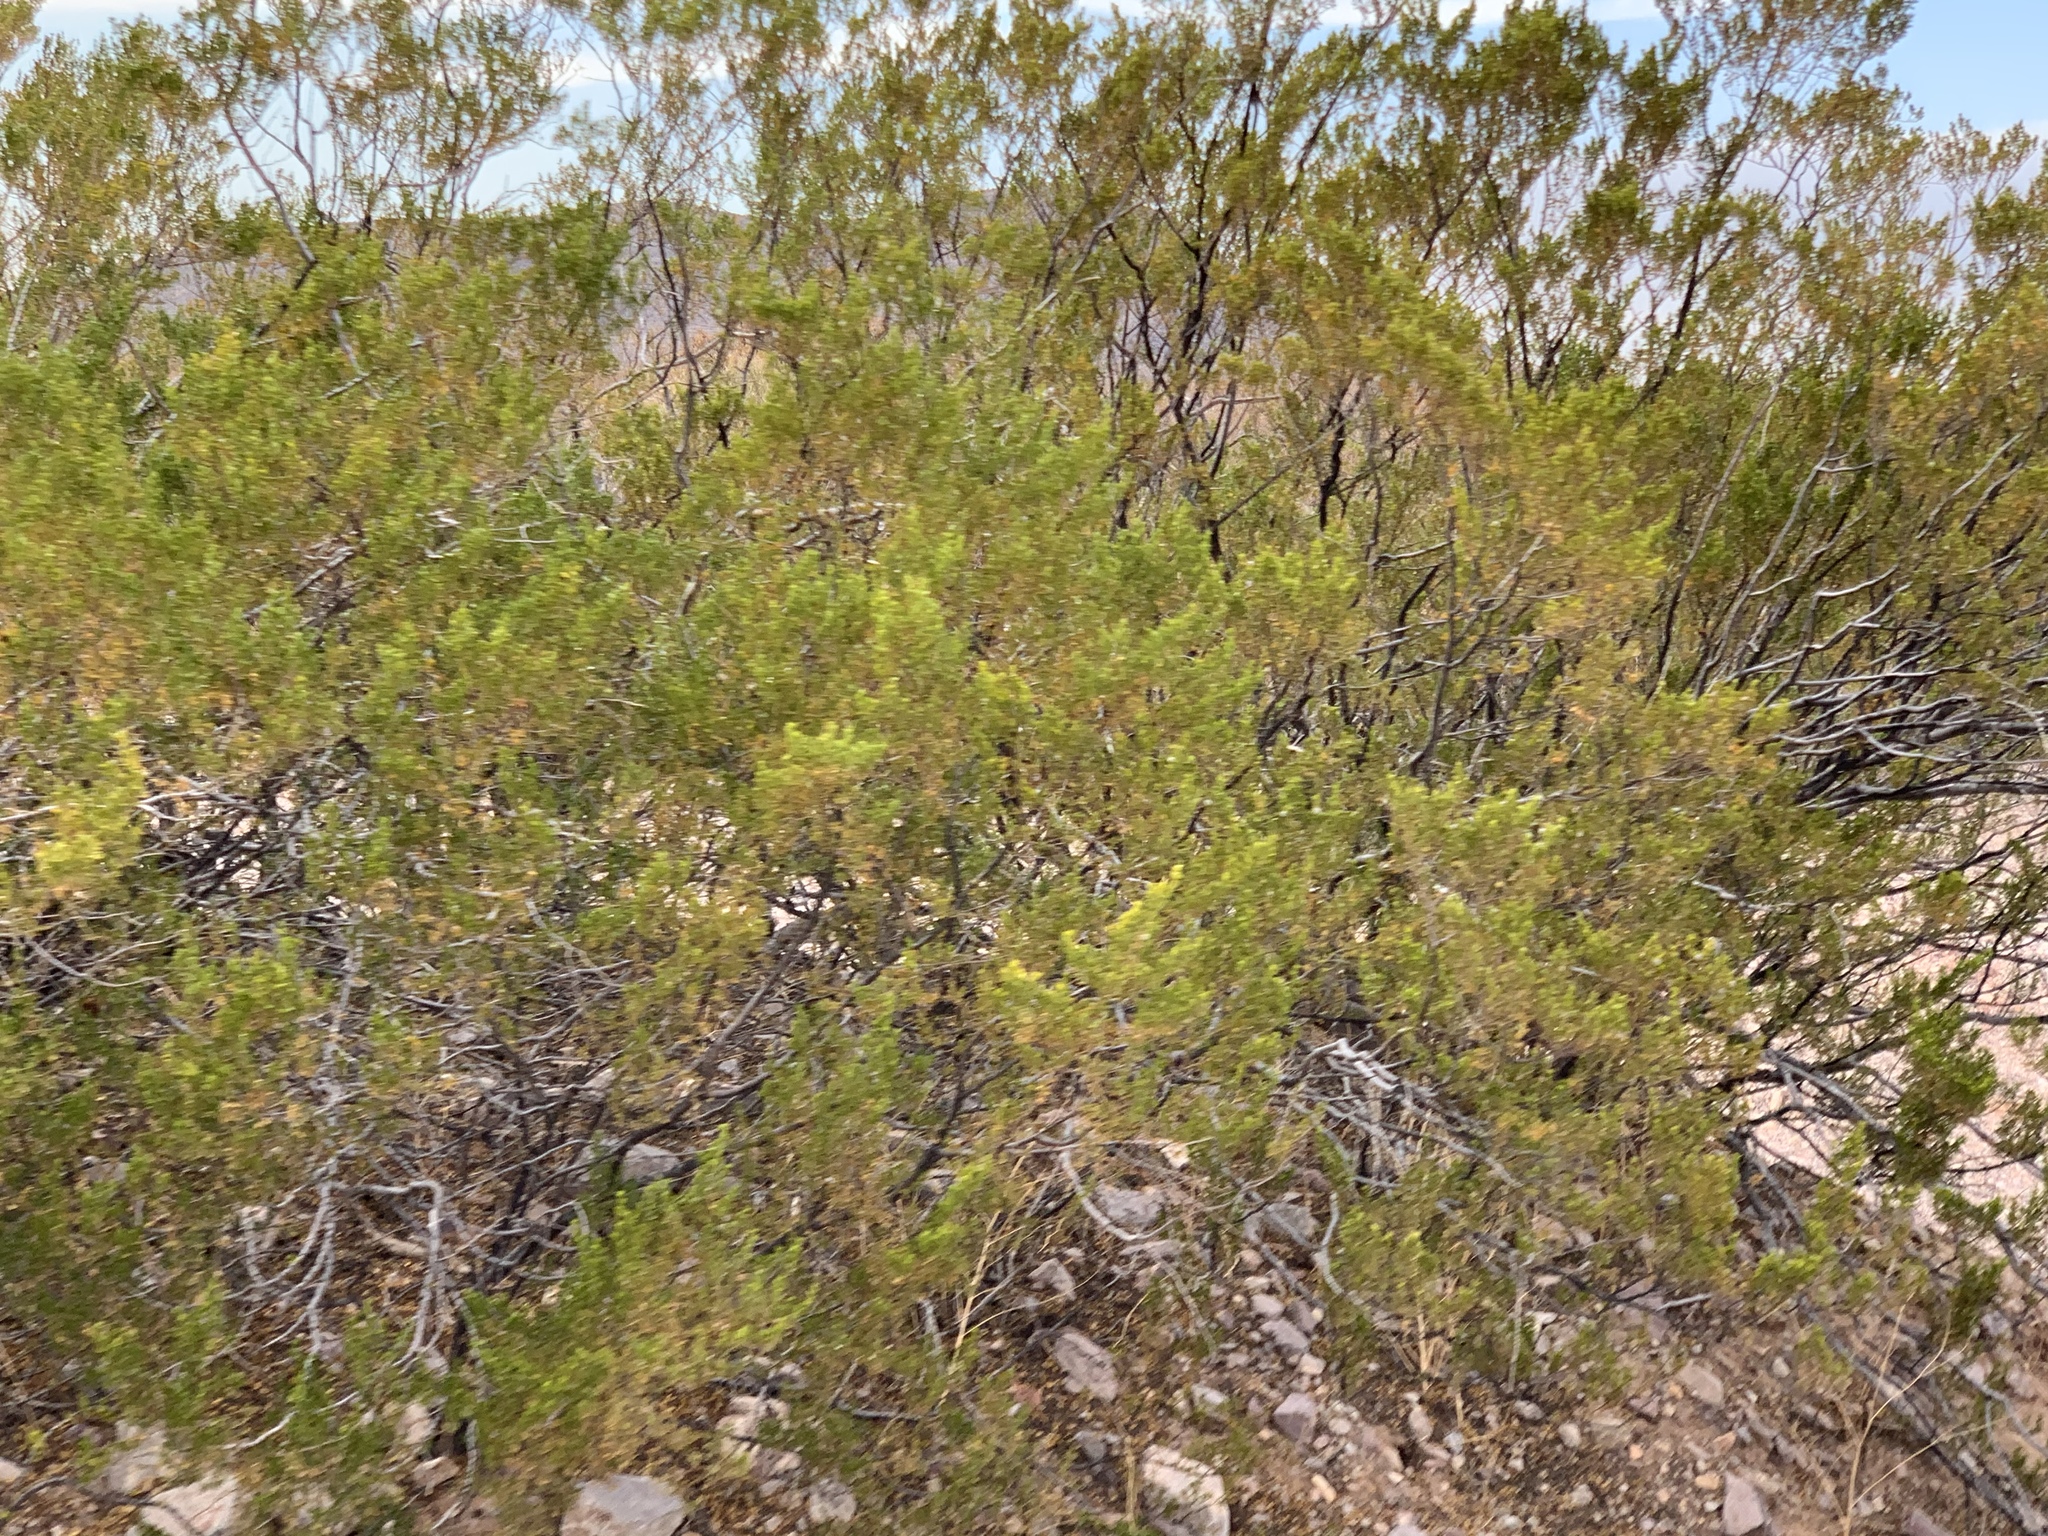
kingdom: Plantae
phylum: Tracheophyta
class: Magnoliopsida
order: Zygophyllales
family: Zygophyllaceae
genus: Larrea
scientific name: Larrea tridentata
